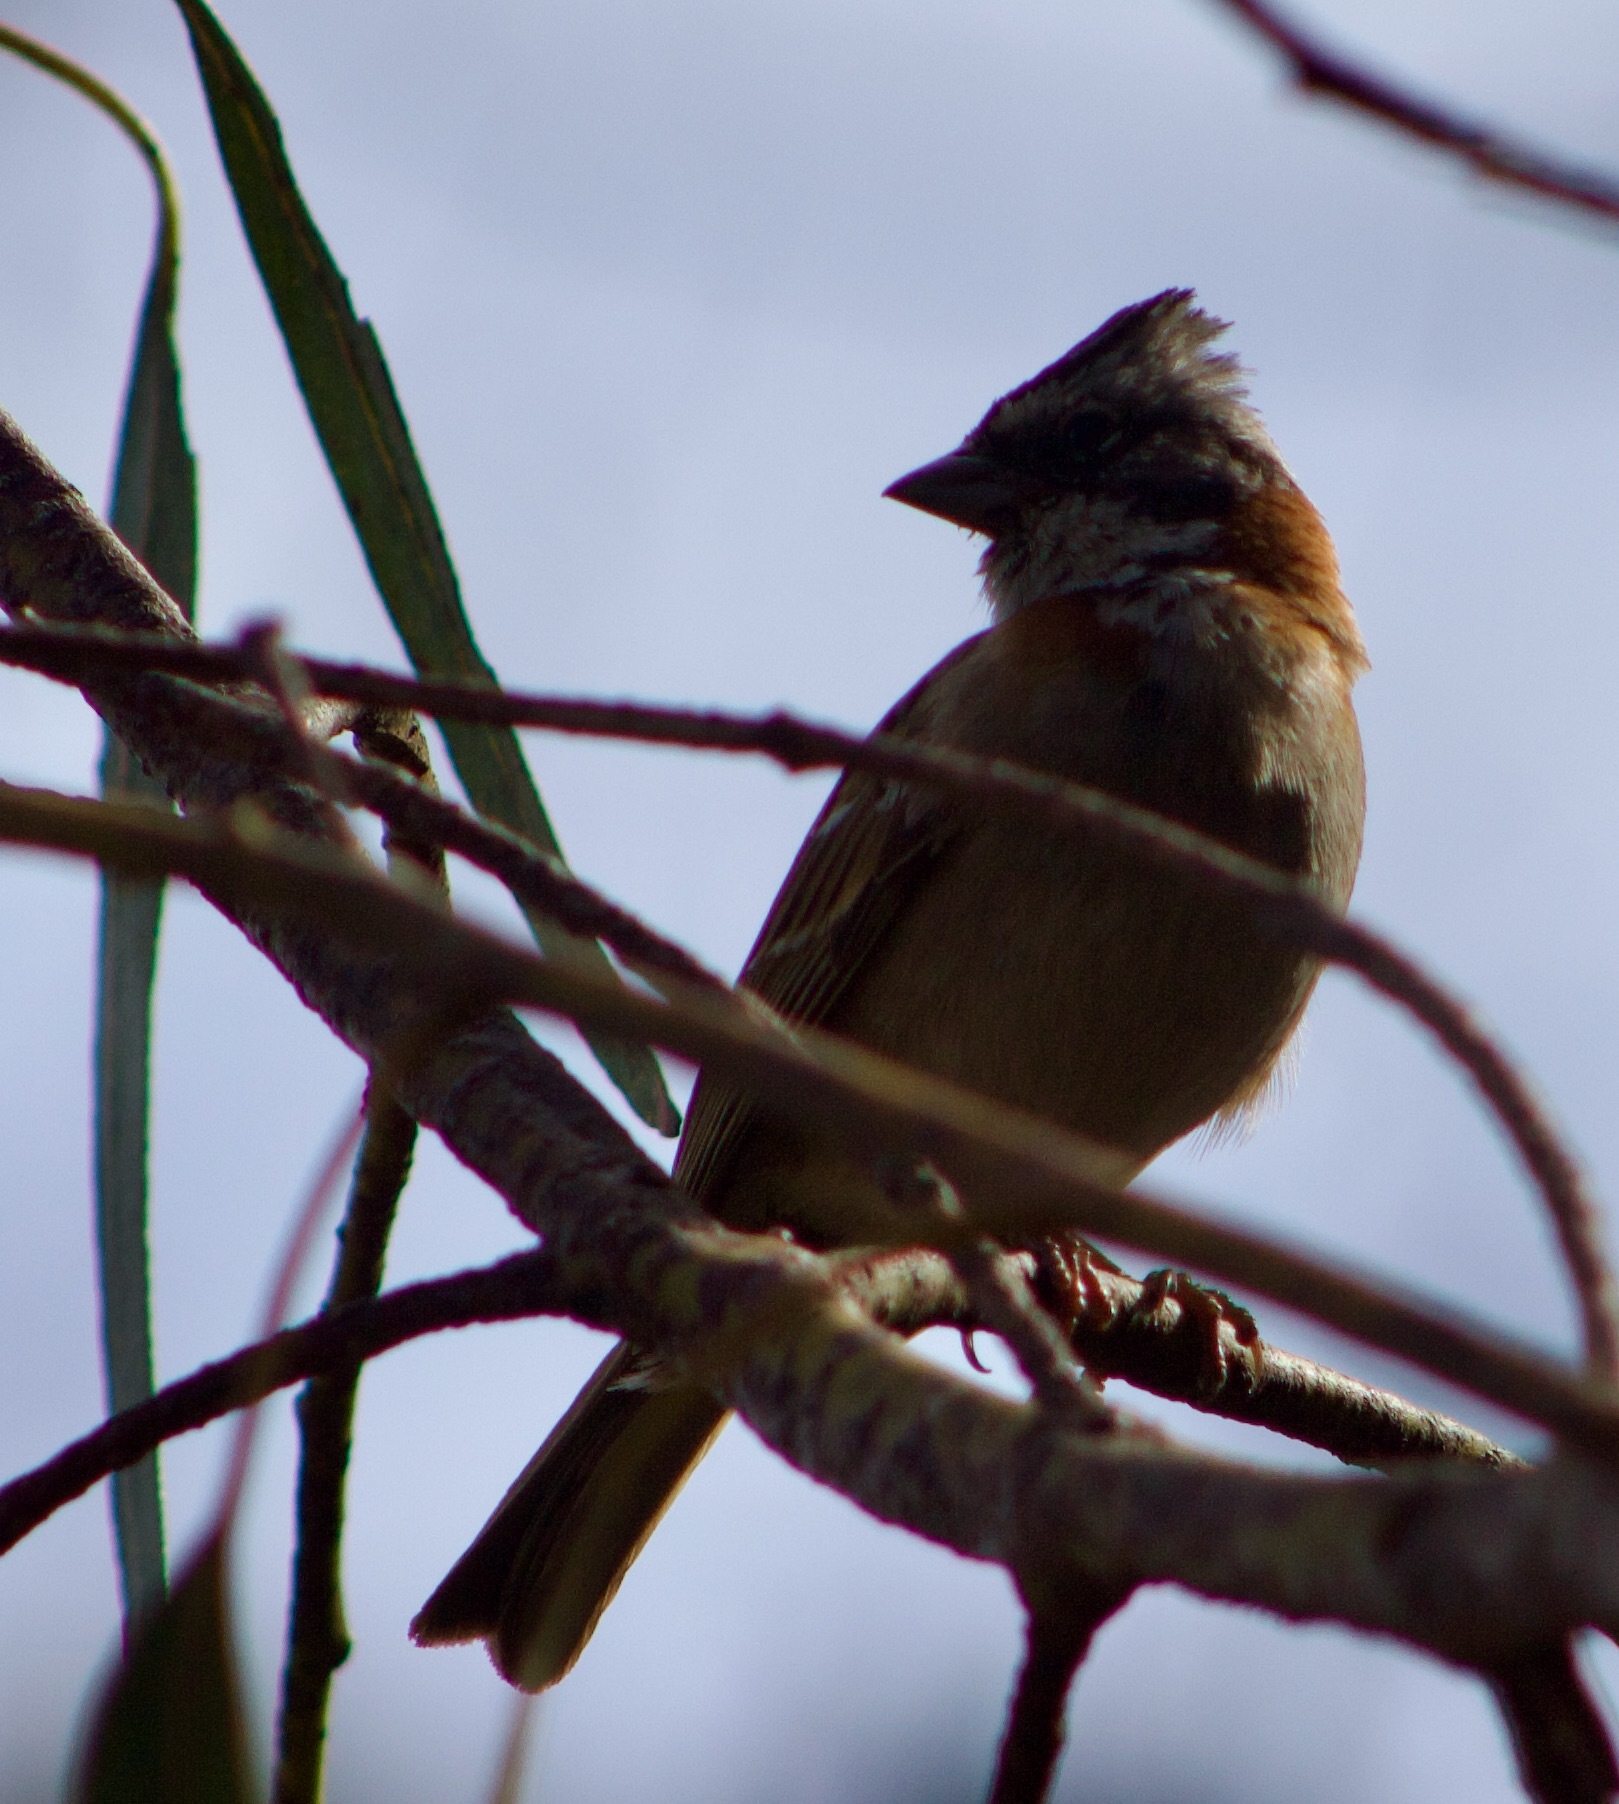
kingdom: Animalia
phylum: Chordata
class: Aves
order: Passeriformes
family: Passerellidae
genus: Zonotrichia
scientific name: Zonotrichia capensis
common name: Rufous-collared sparrow
